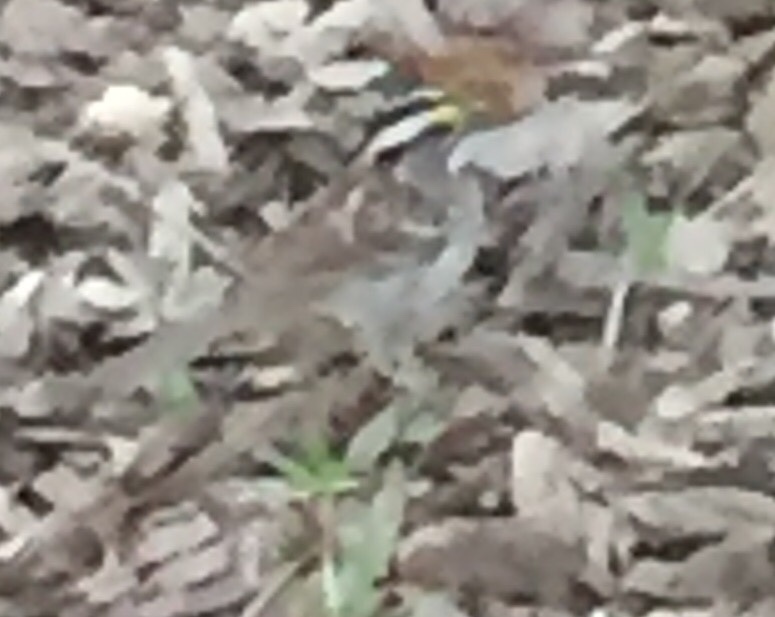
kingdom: Animalia
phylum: Chordata
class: Aves
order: Passeriformes
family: Passerellidae
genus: Zonotrichia
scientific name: Zonotrichia albicollis
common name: White-throated sparrow
